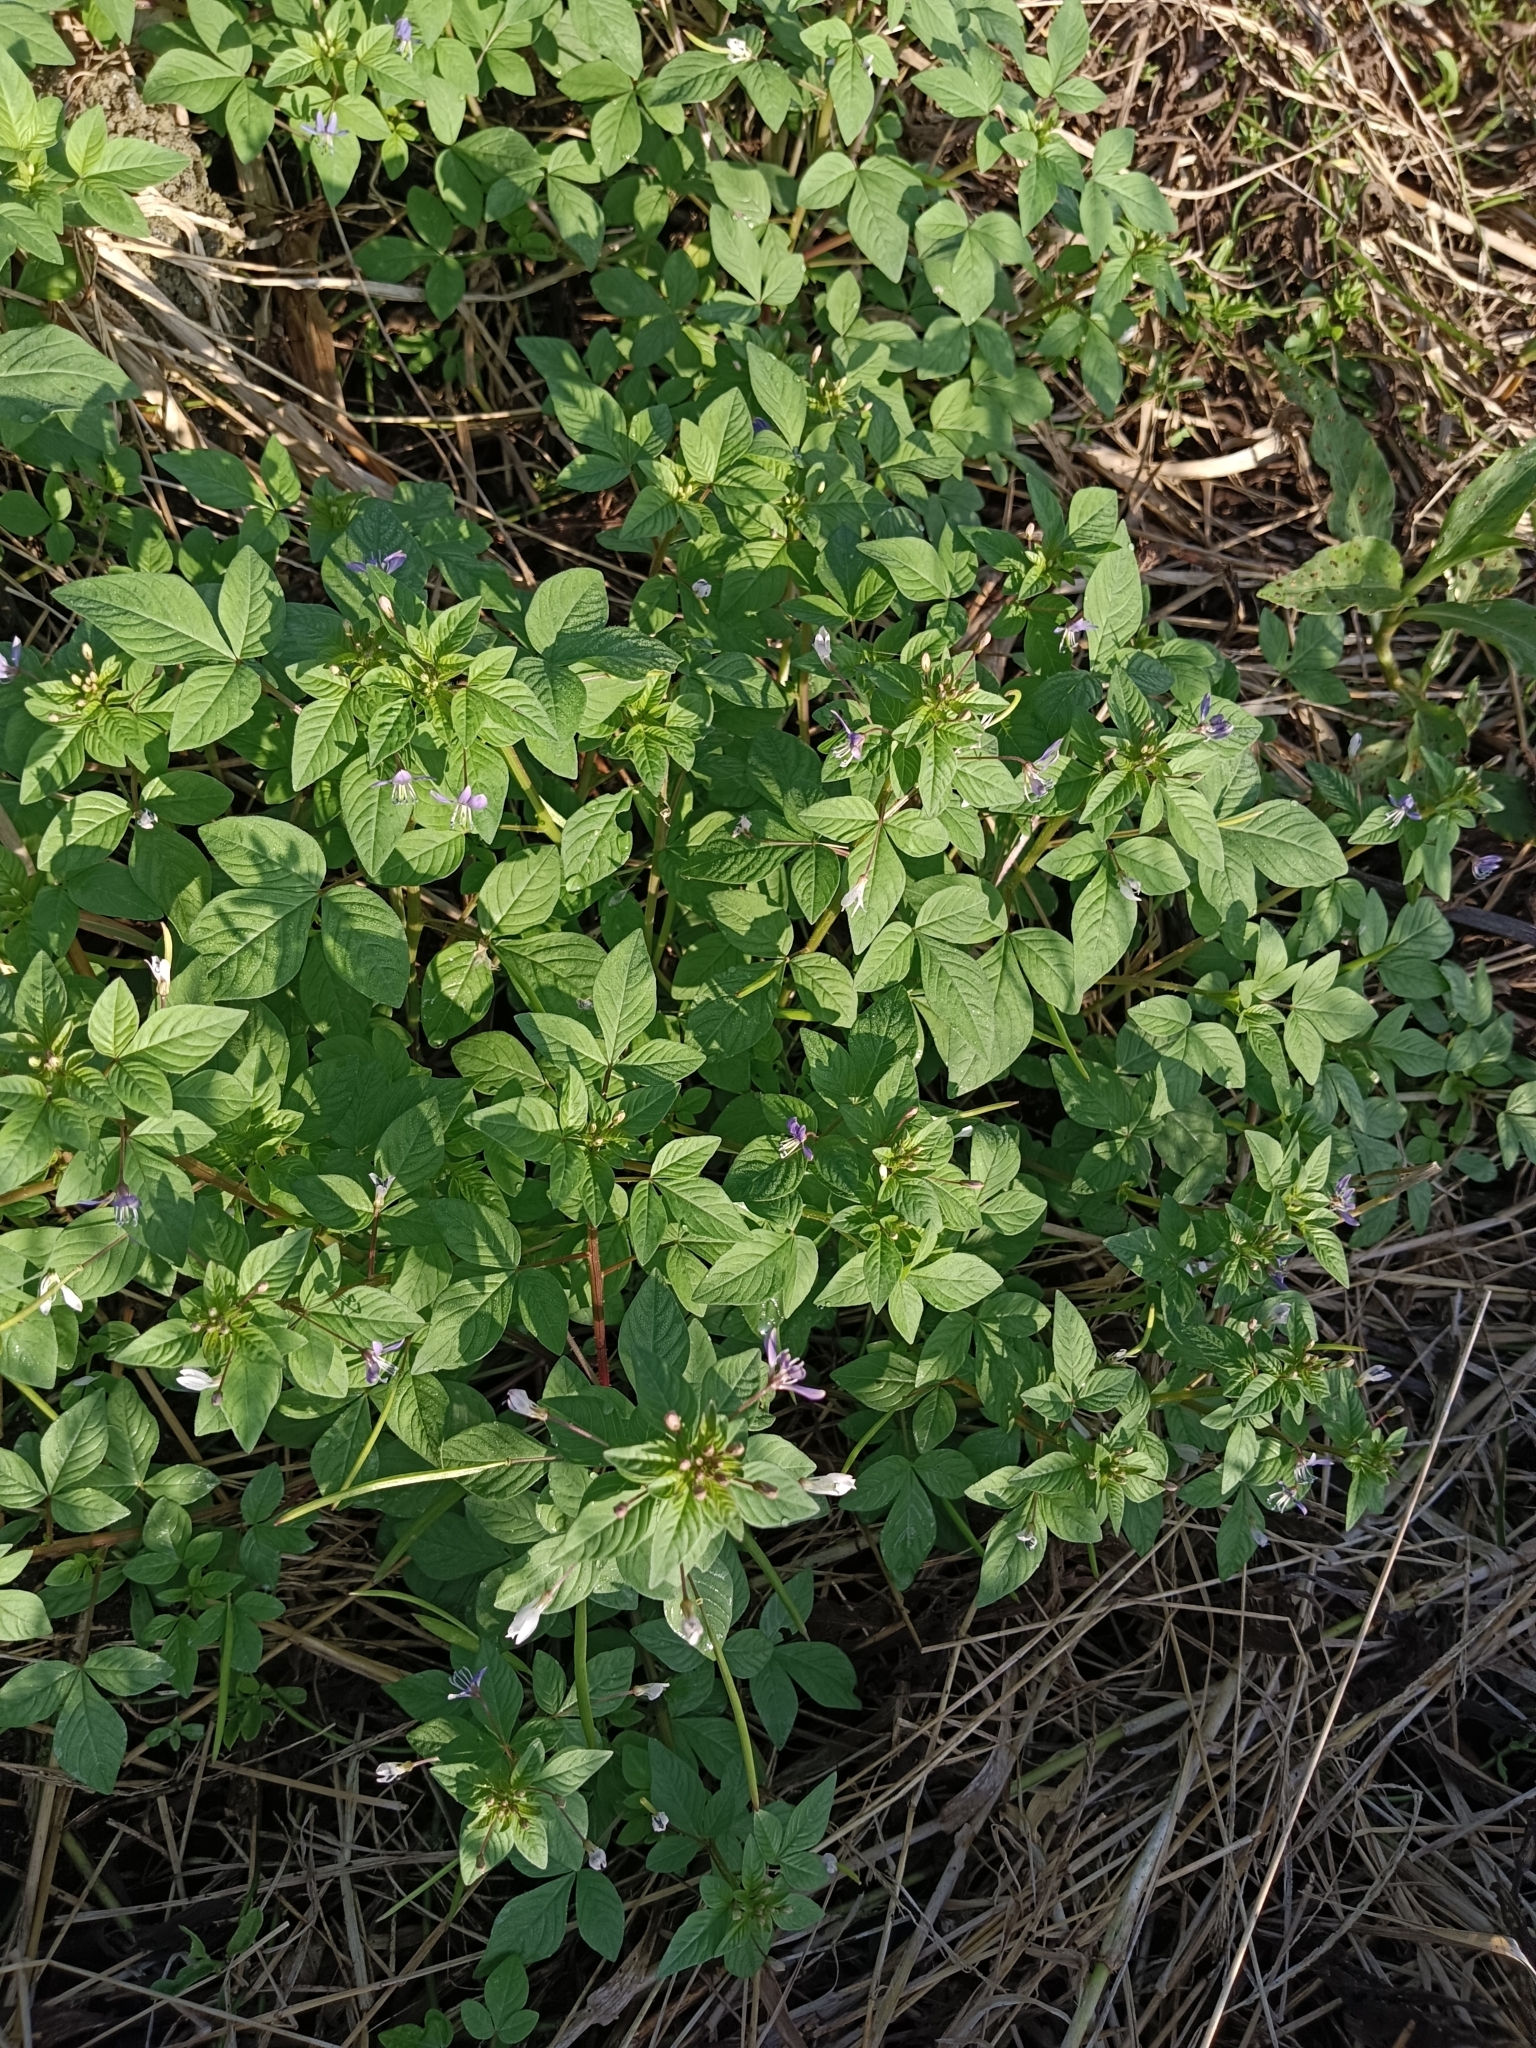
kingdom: Plantae
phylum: Tracheophyta
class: Magnoliopsida
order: Brassicales
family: Cleomaceae
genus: Sieruela
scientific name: Sieruela rutidosperma
